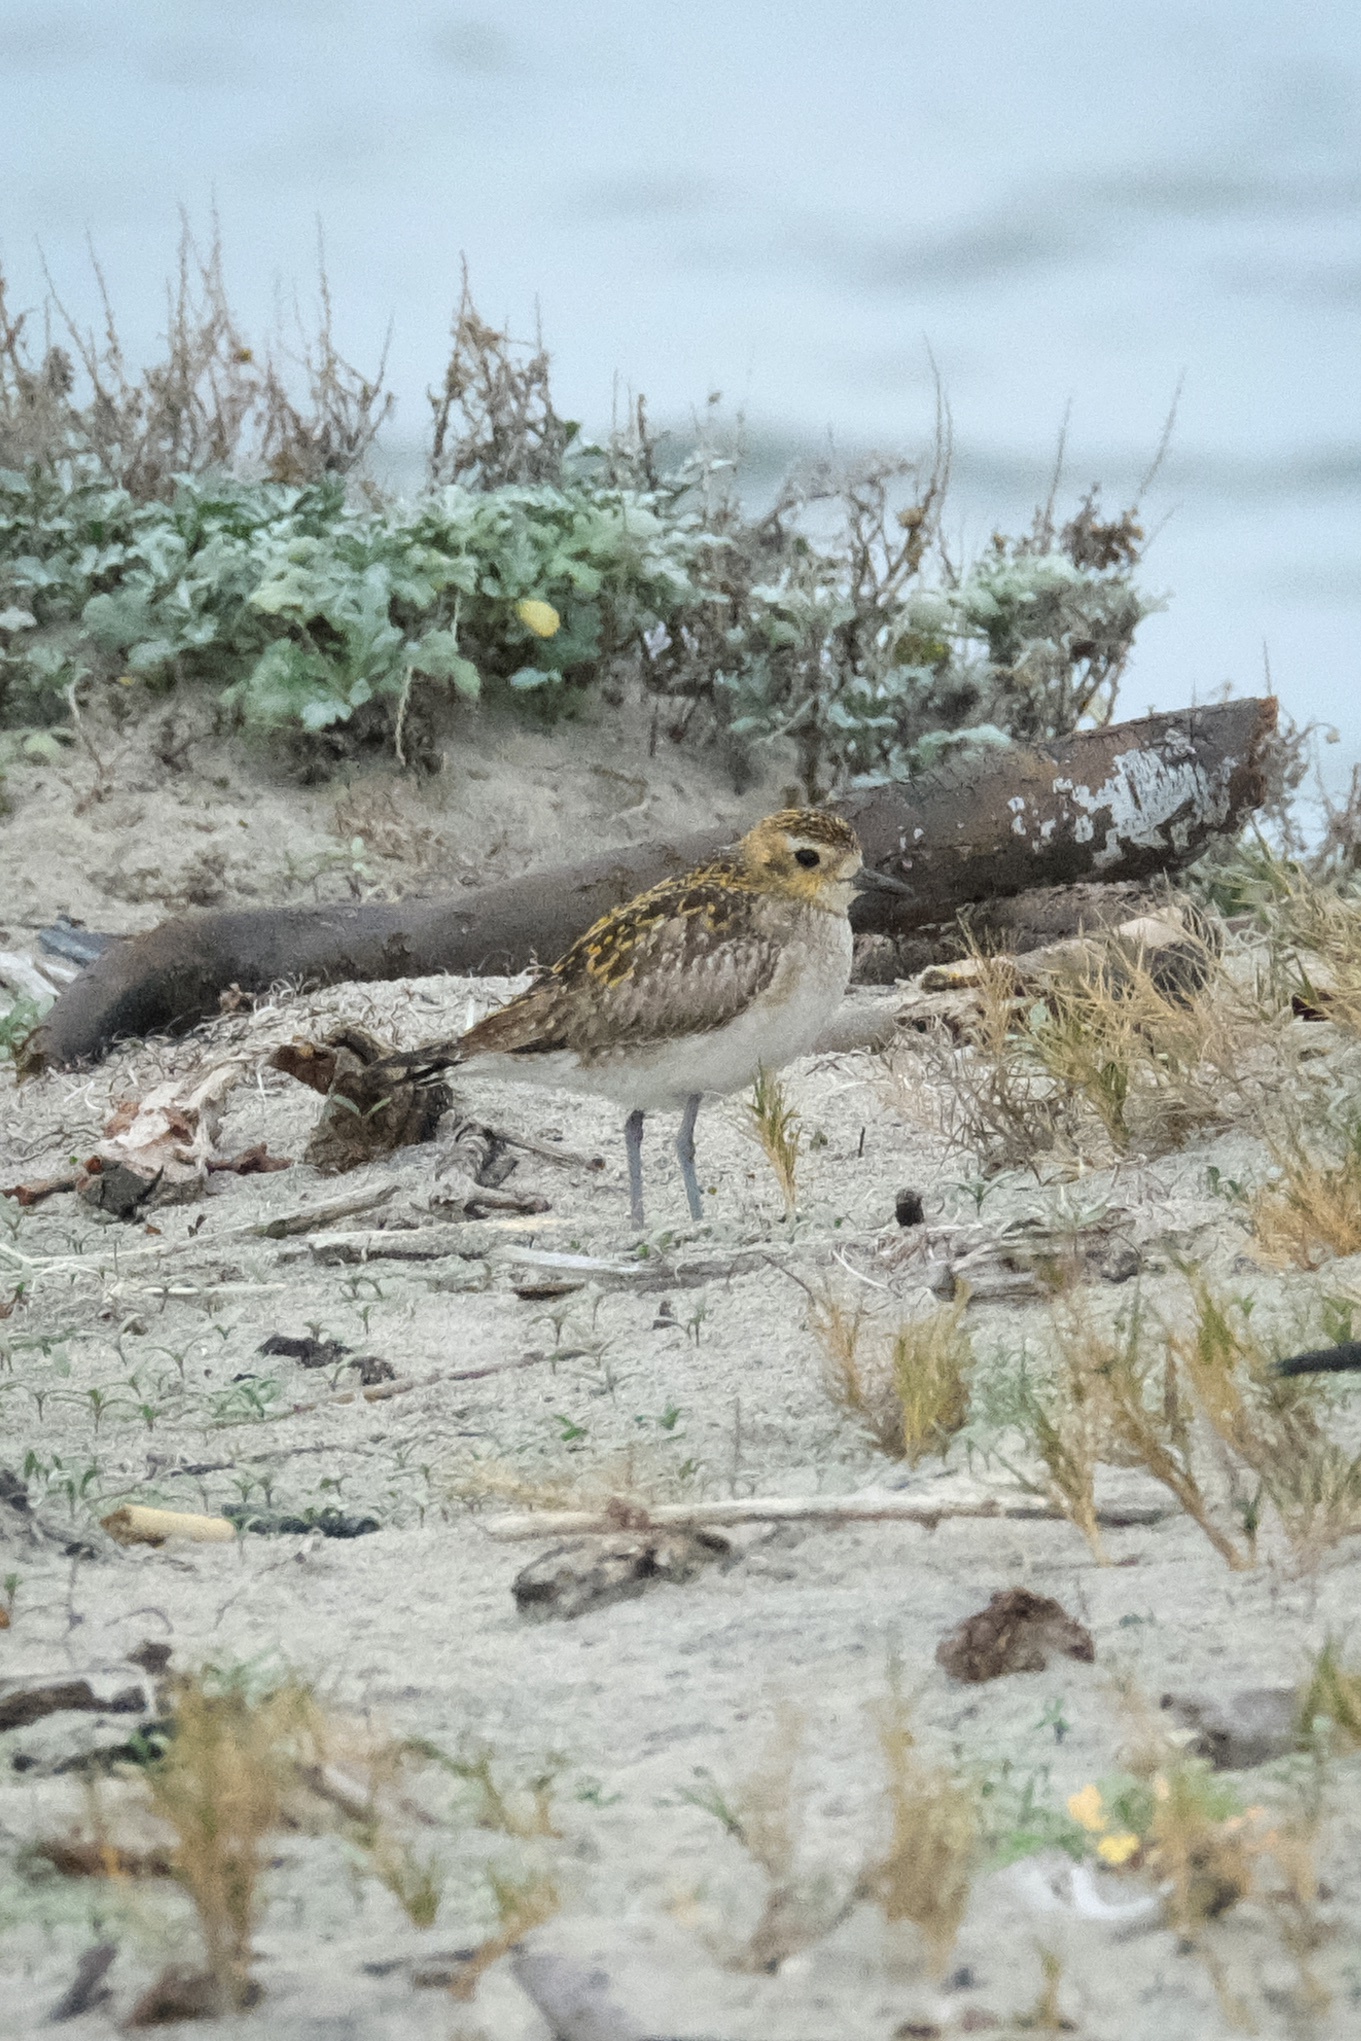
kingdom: Animalia
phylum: Chordata
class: Aves
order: Charadriiformes
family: Charadriidae
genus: Pluvialis
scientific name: Pluvialis fulva
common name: Pacific golden plover
